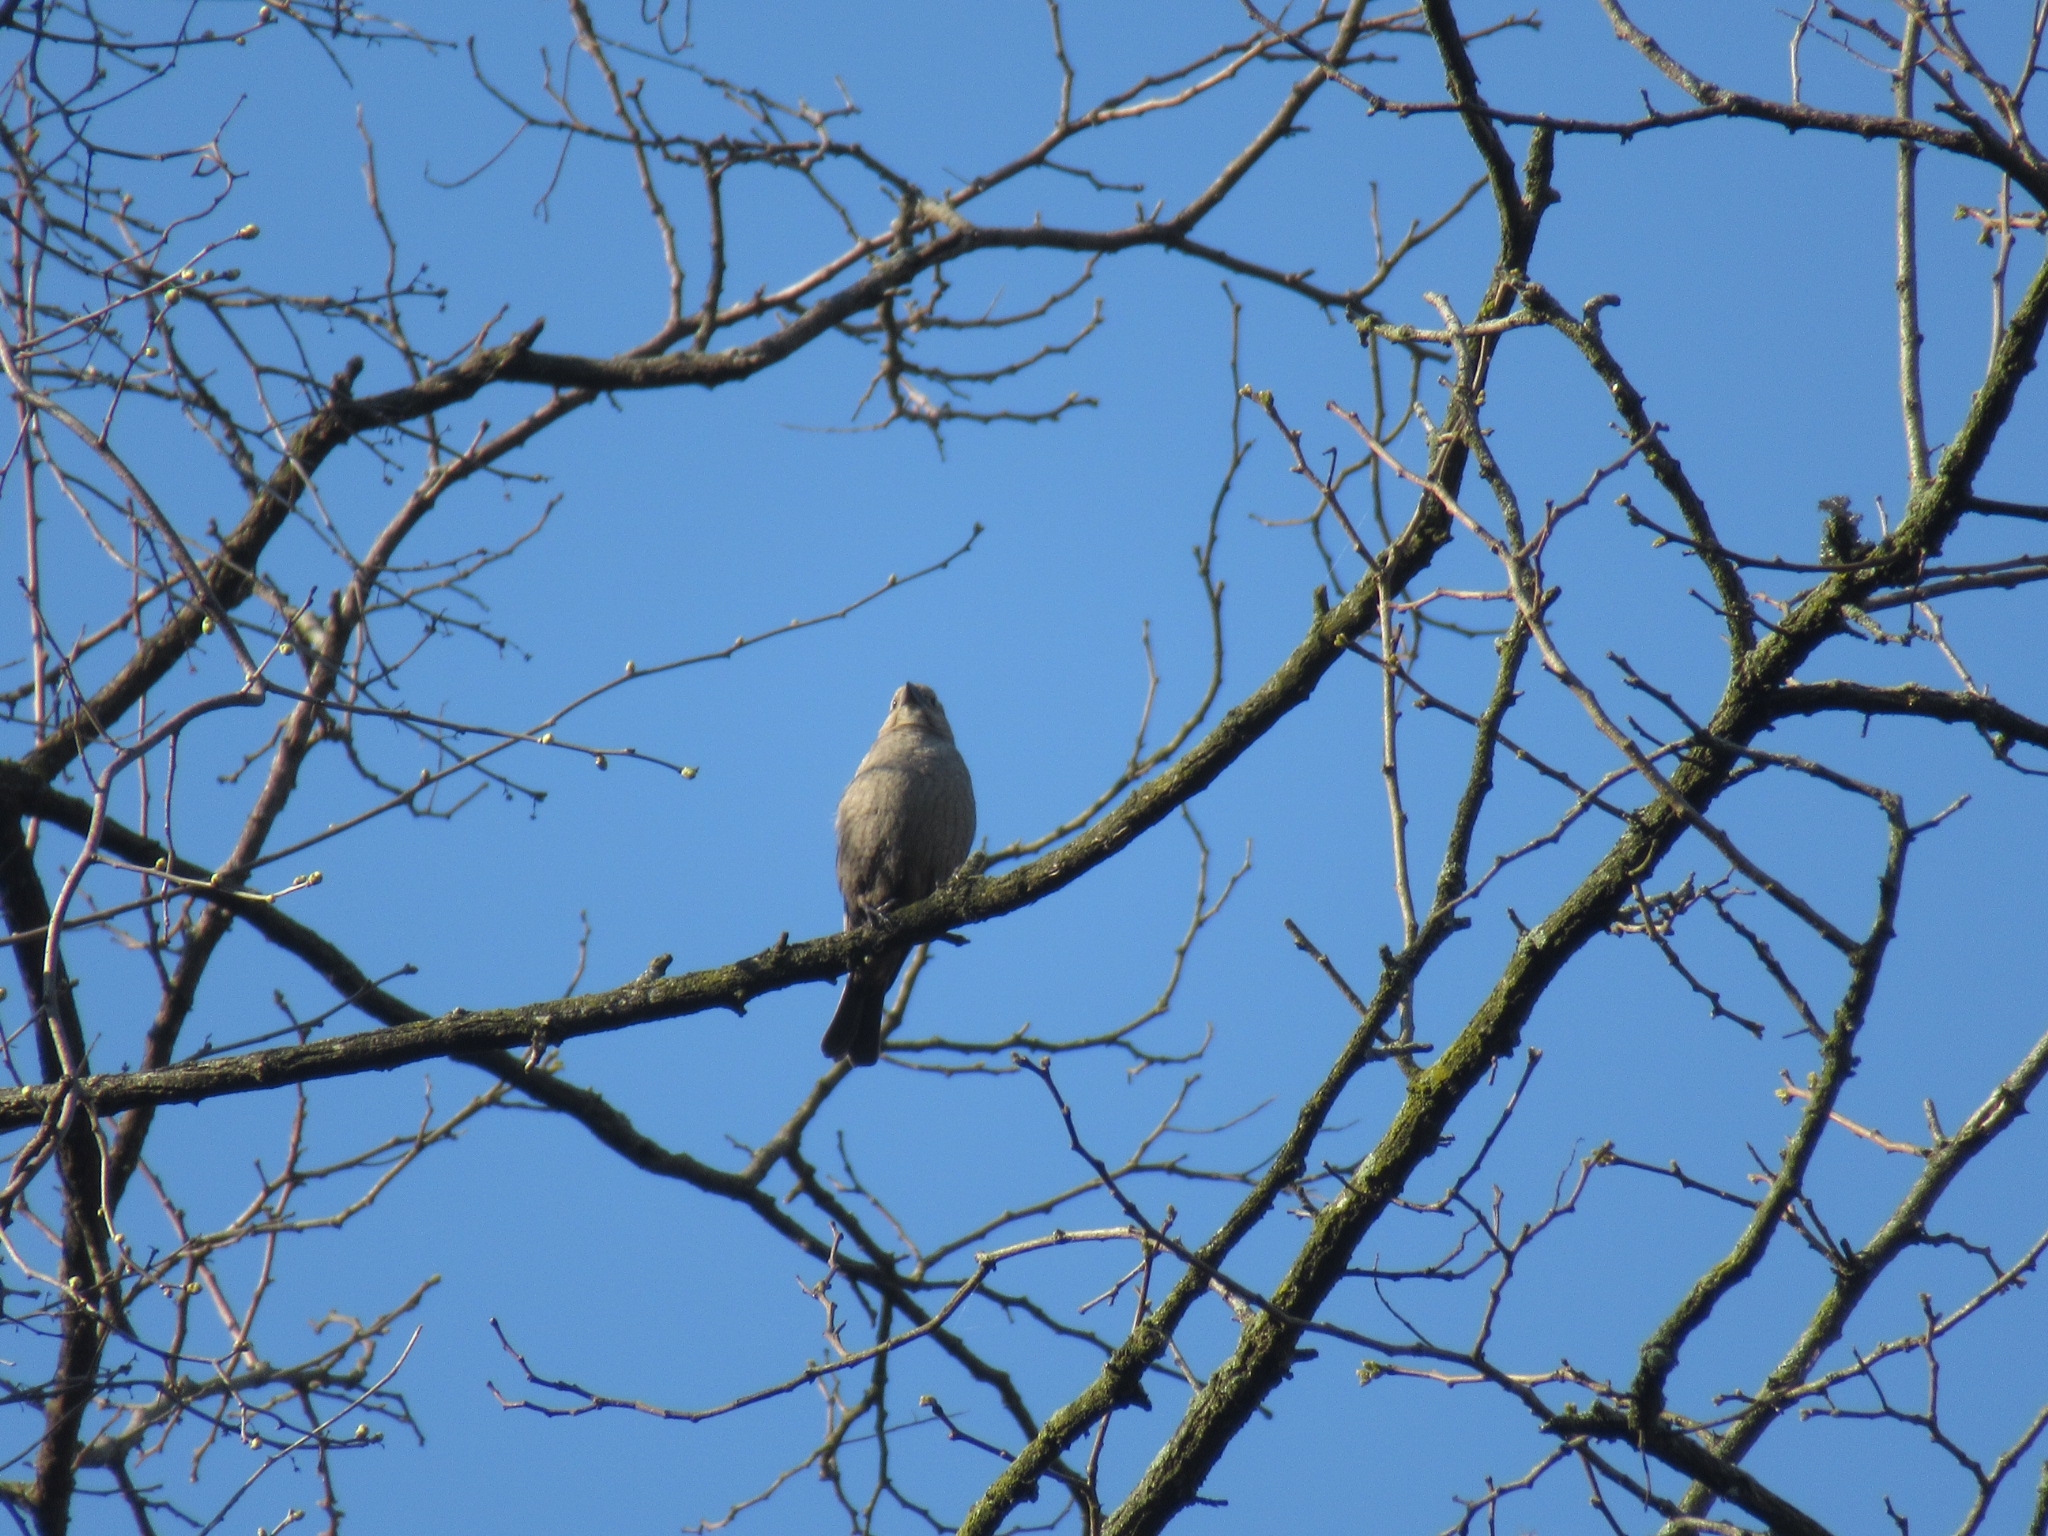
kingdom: Animalia
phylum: Chordata
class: Aves
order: Passeriformes
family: Icteridae
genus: Molothrus
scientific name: Molothrus ater
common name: Brown-headed cowbird
